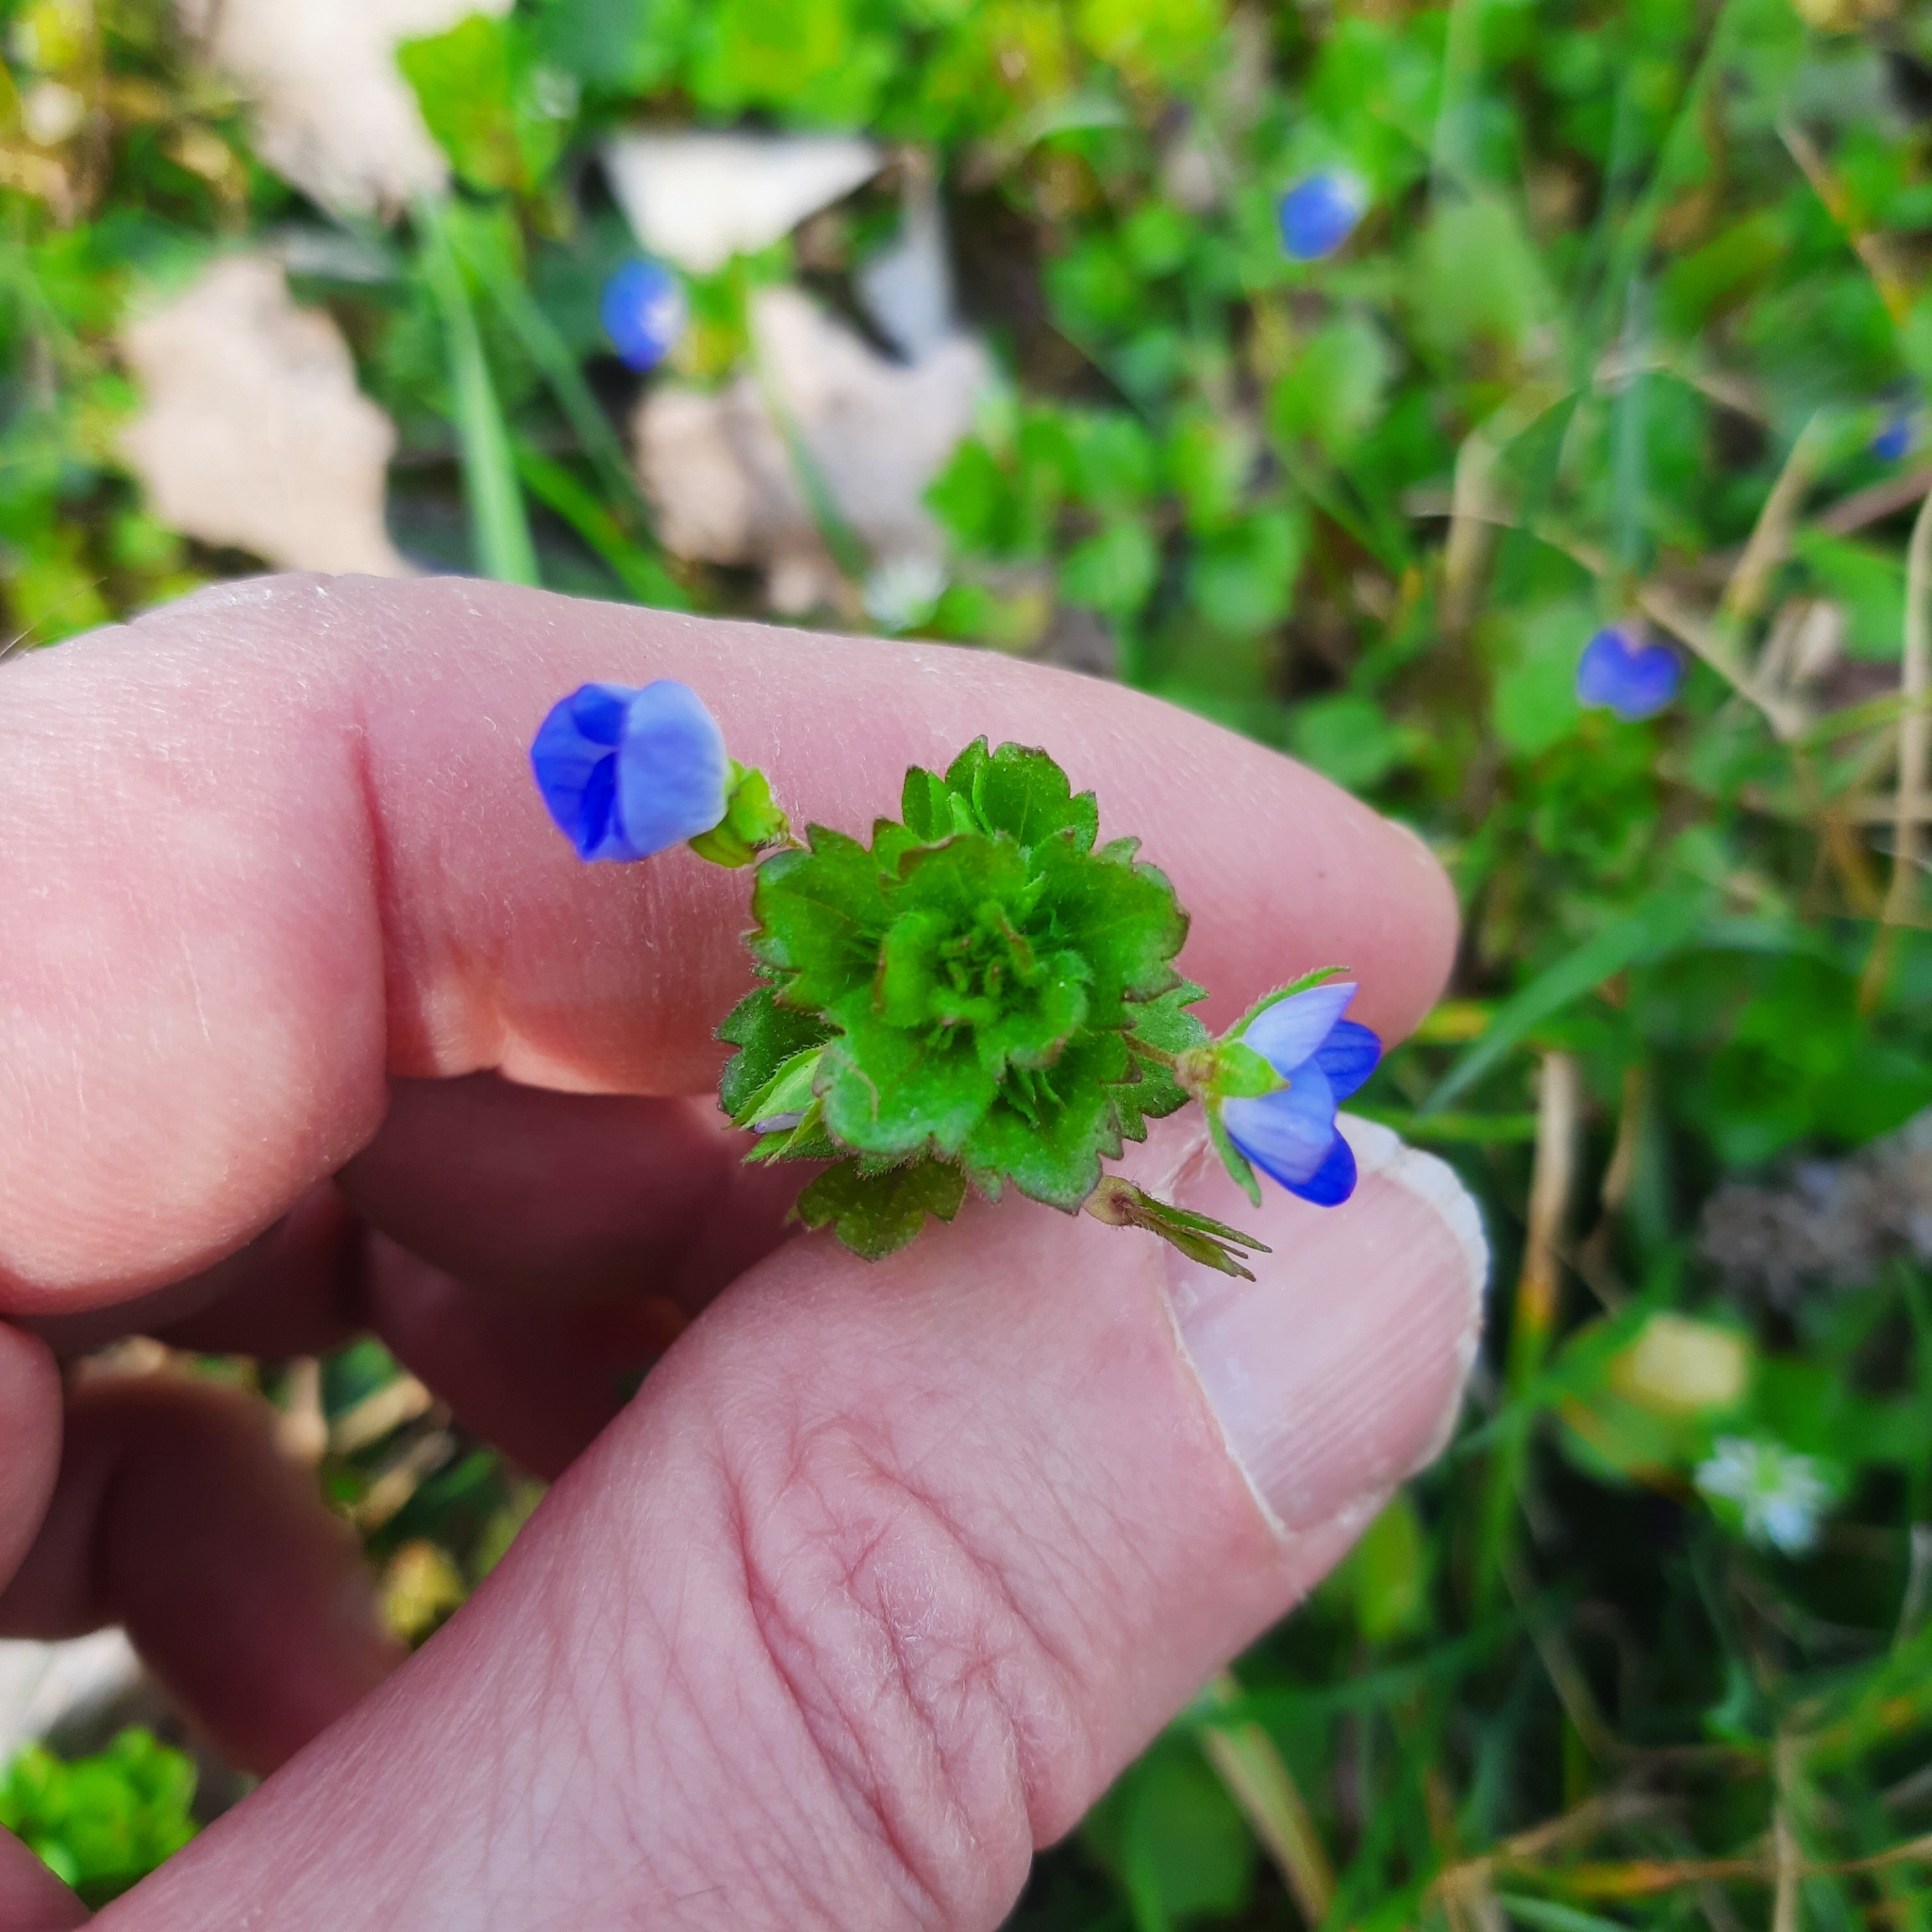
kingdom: Plantae
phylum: Tracheophyta
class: Magnoliopsida
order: Lamiales
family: Plantaginaceae
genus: Veronica
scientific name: Veronica persica
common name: Common field-speedwell
